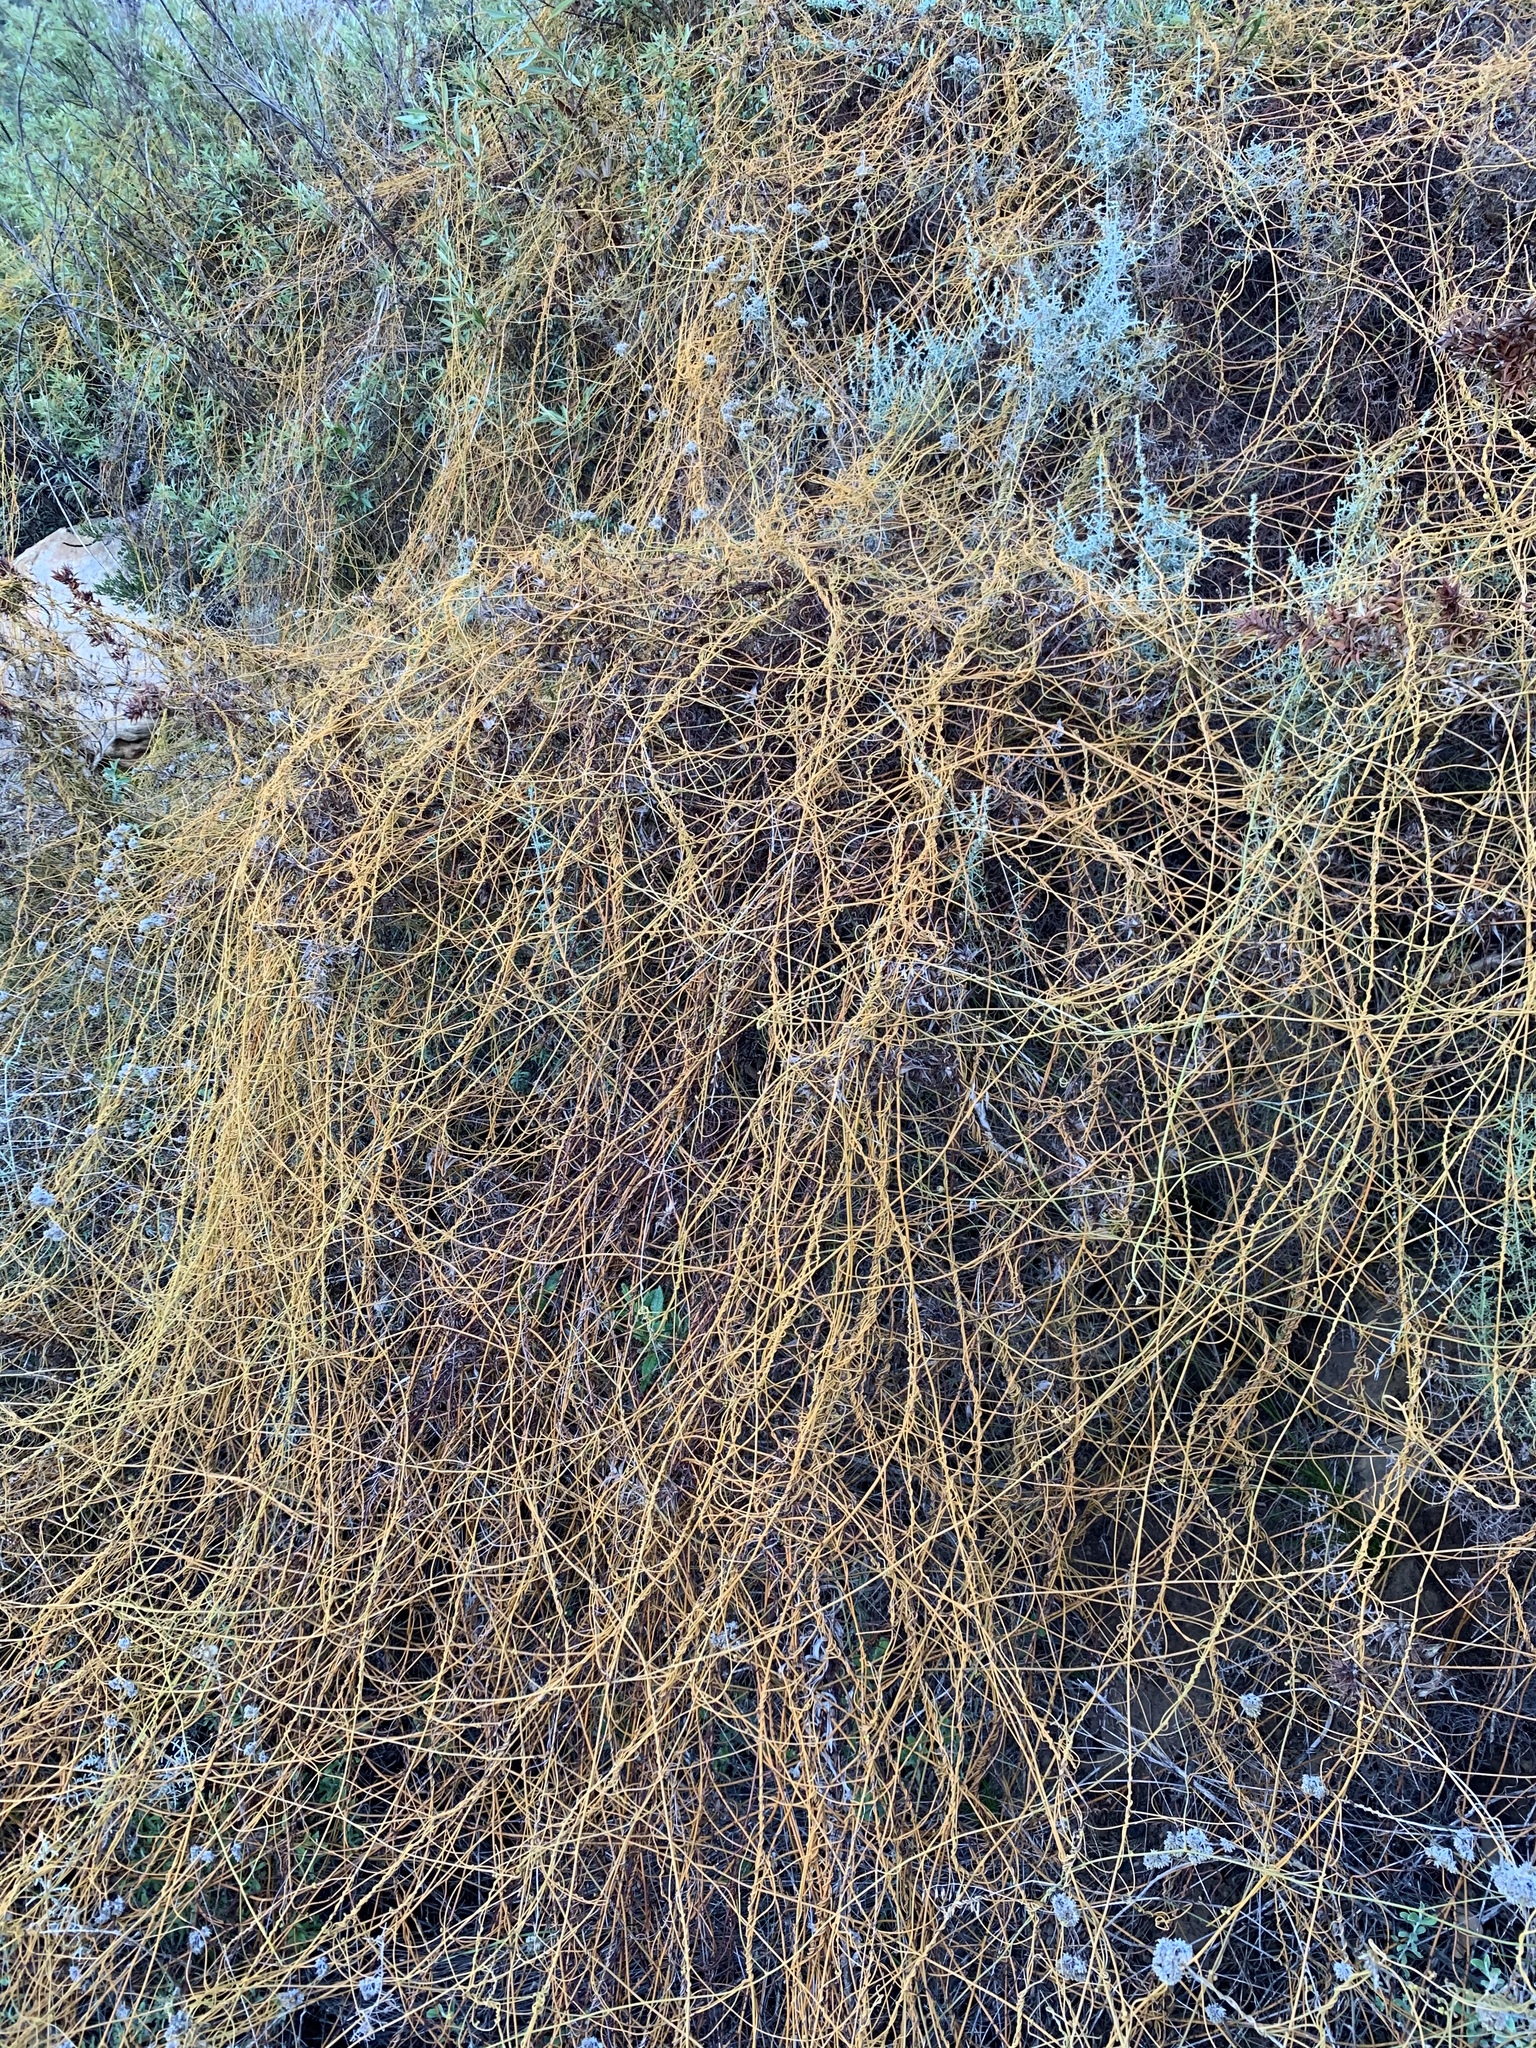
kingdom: Plantae
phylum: Tracheophyta
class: Magnoliopsida
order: Laurales
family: Lauraceae
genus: Cassytha
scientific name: Cassytha ciliolata
